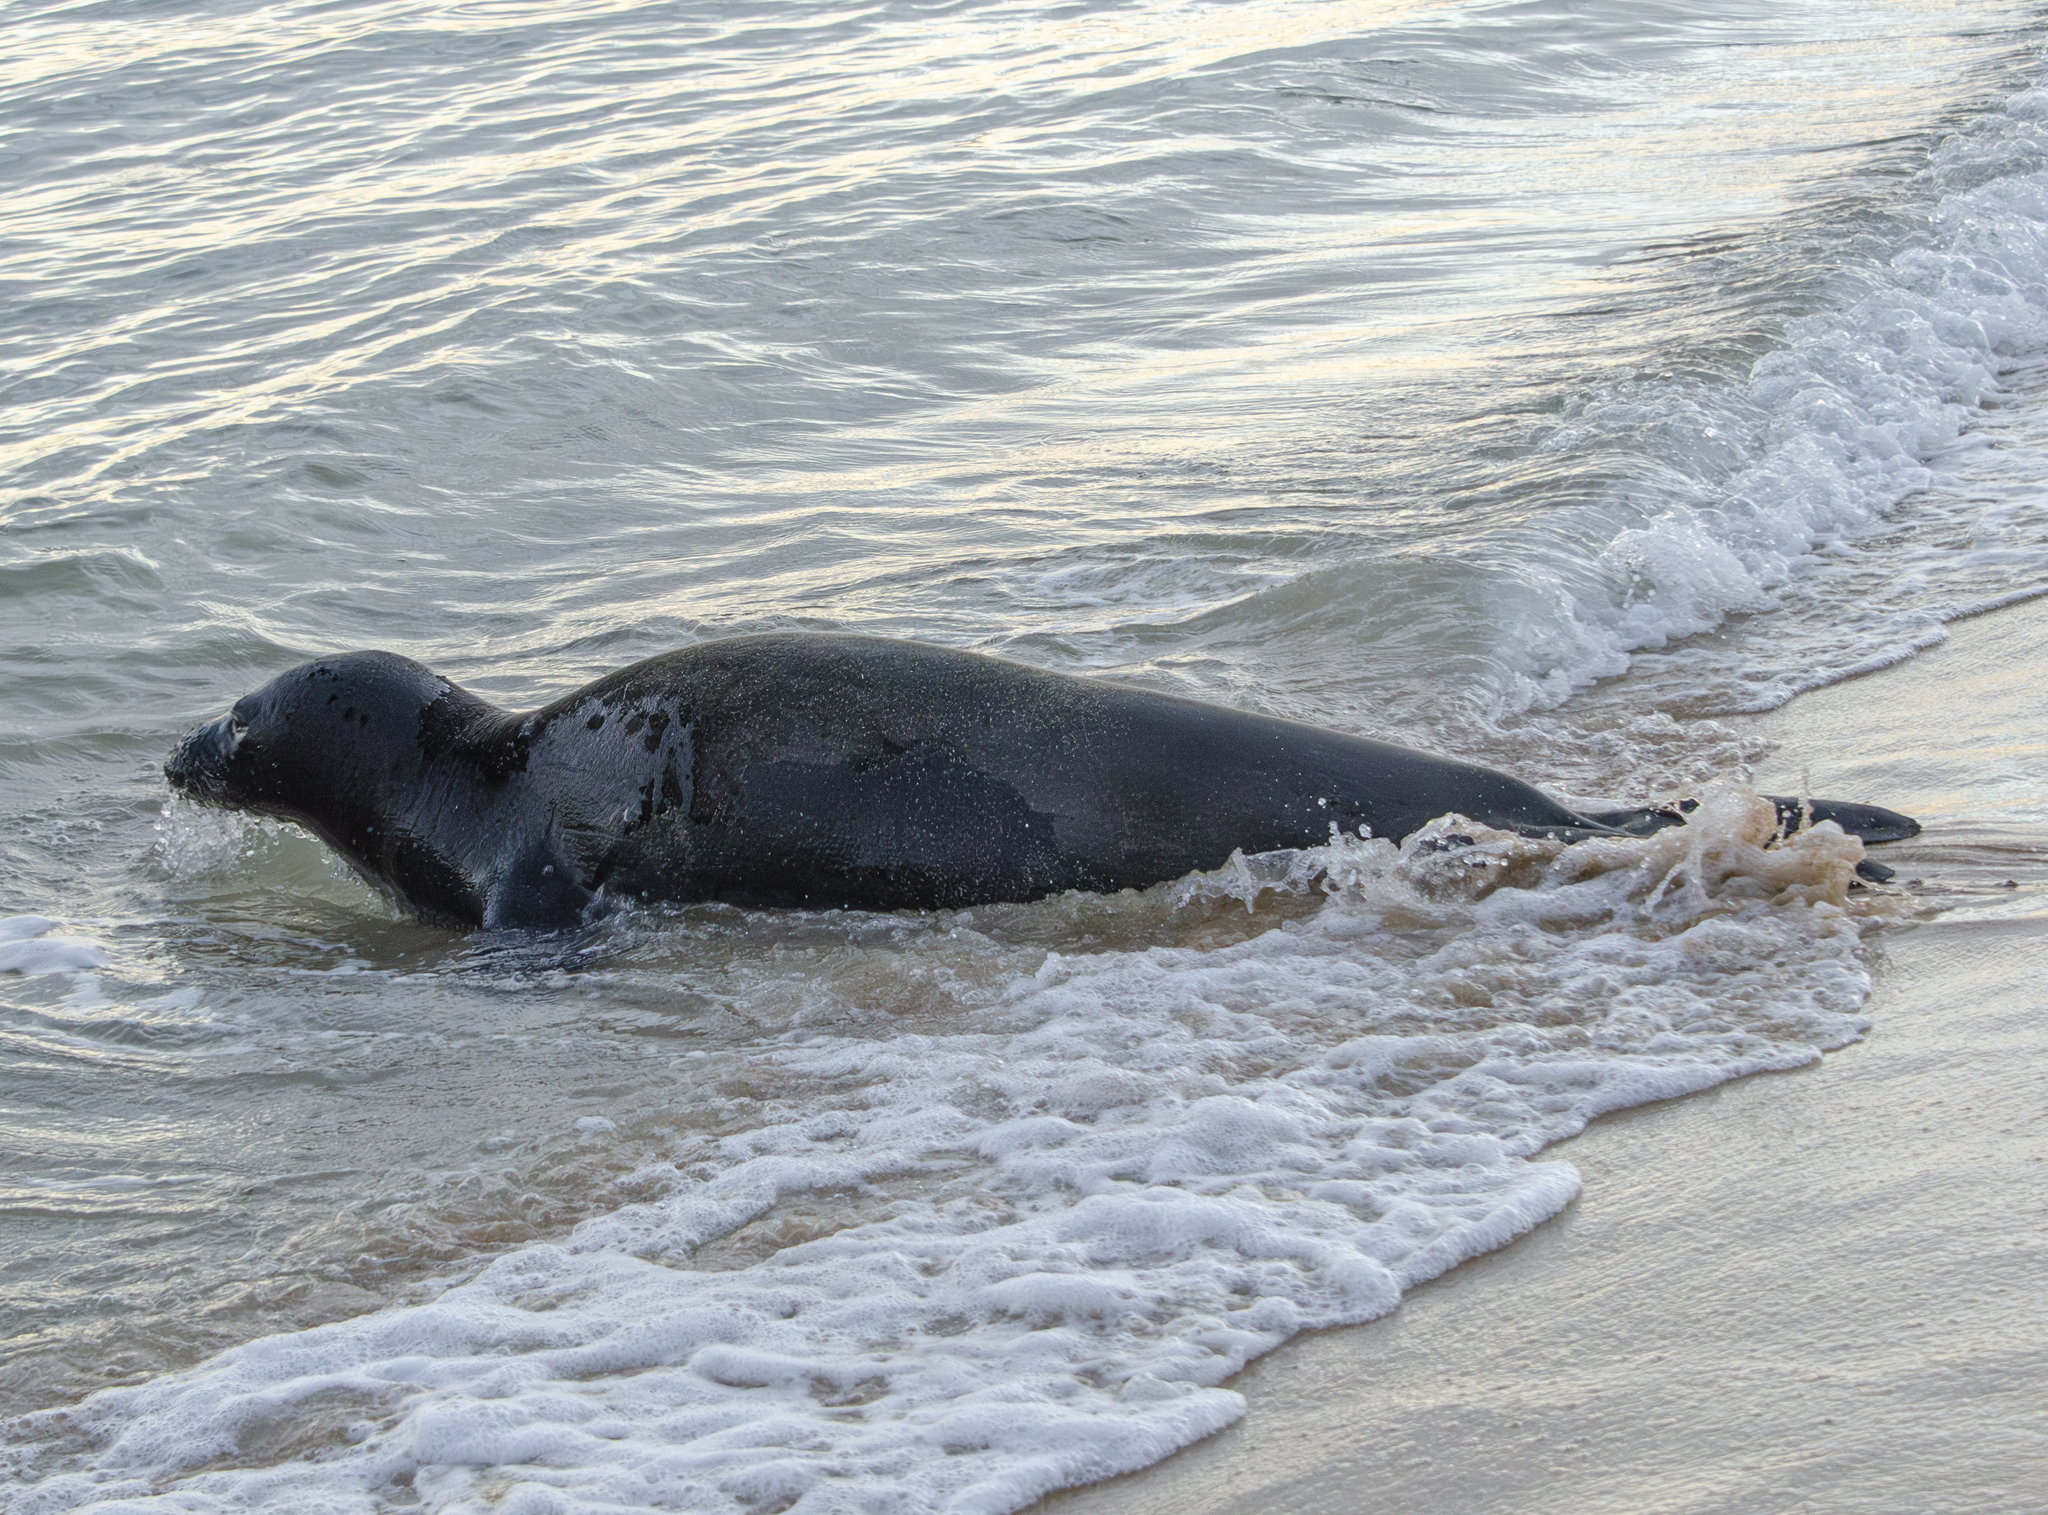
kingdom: Animalia
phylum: Chordata
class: Mammalia
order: Carnivora
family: Phocidae
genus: Neomonachus
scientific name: Neomonachus schauinslandi
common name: Hawaiian monk seal
